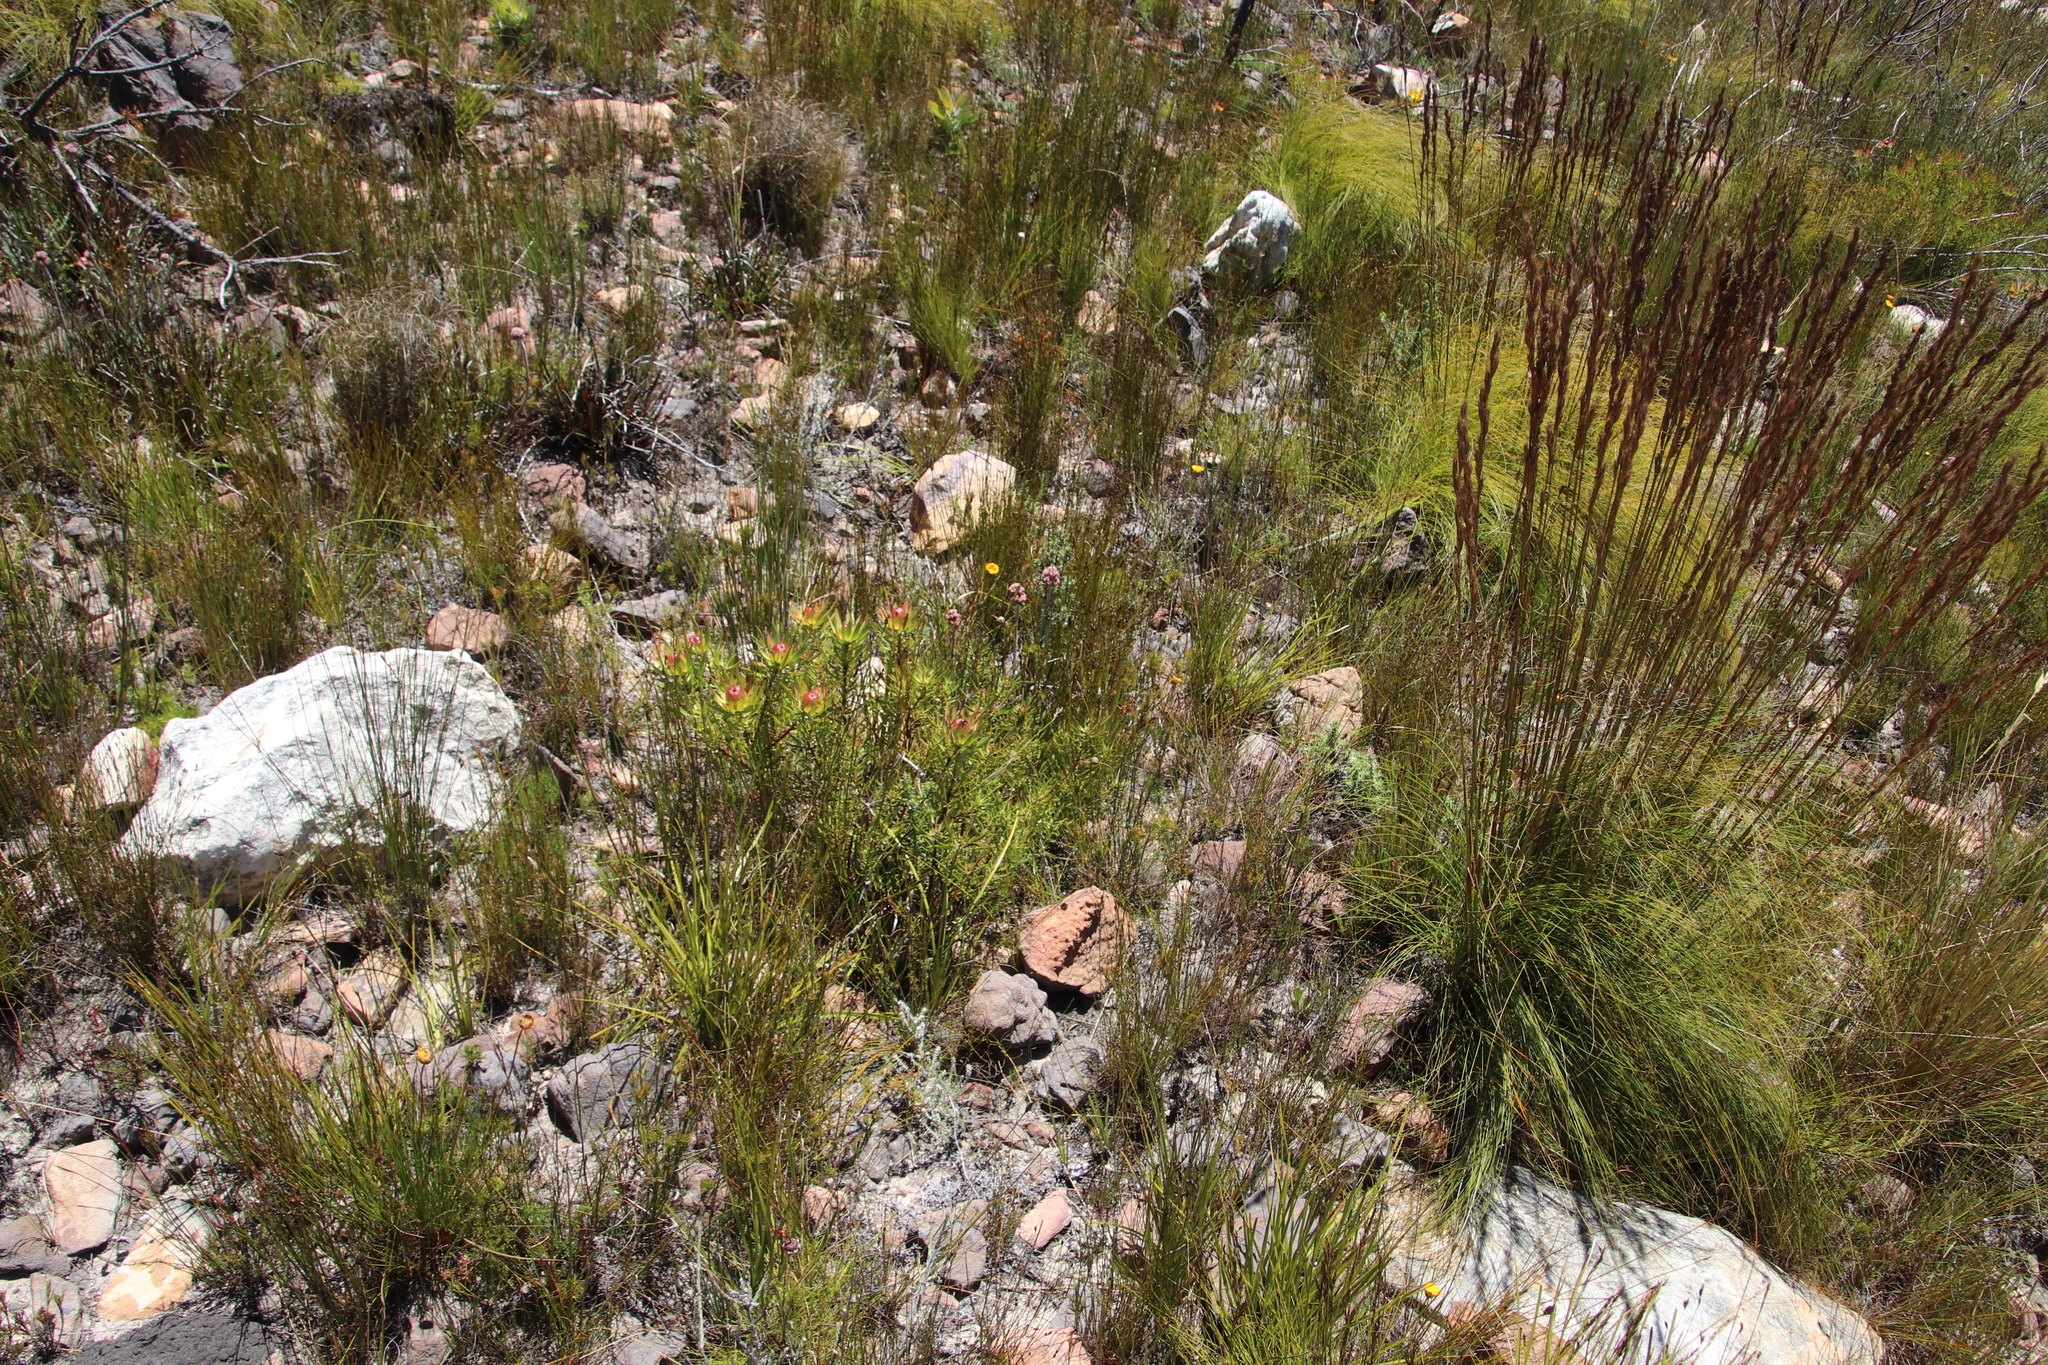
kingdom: Plantae
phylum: Tracheophyta
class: Magnoliopsida
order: Proteales
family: Proteaceae
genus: Leucadendron
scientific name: Leucadendron spissifolium
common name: Spear-leaf conebush
